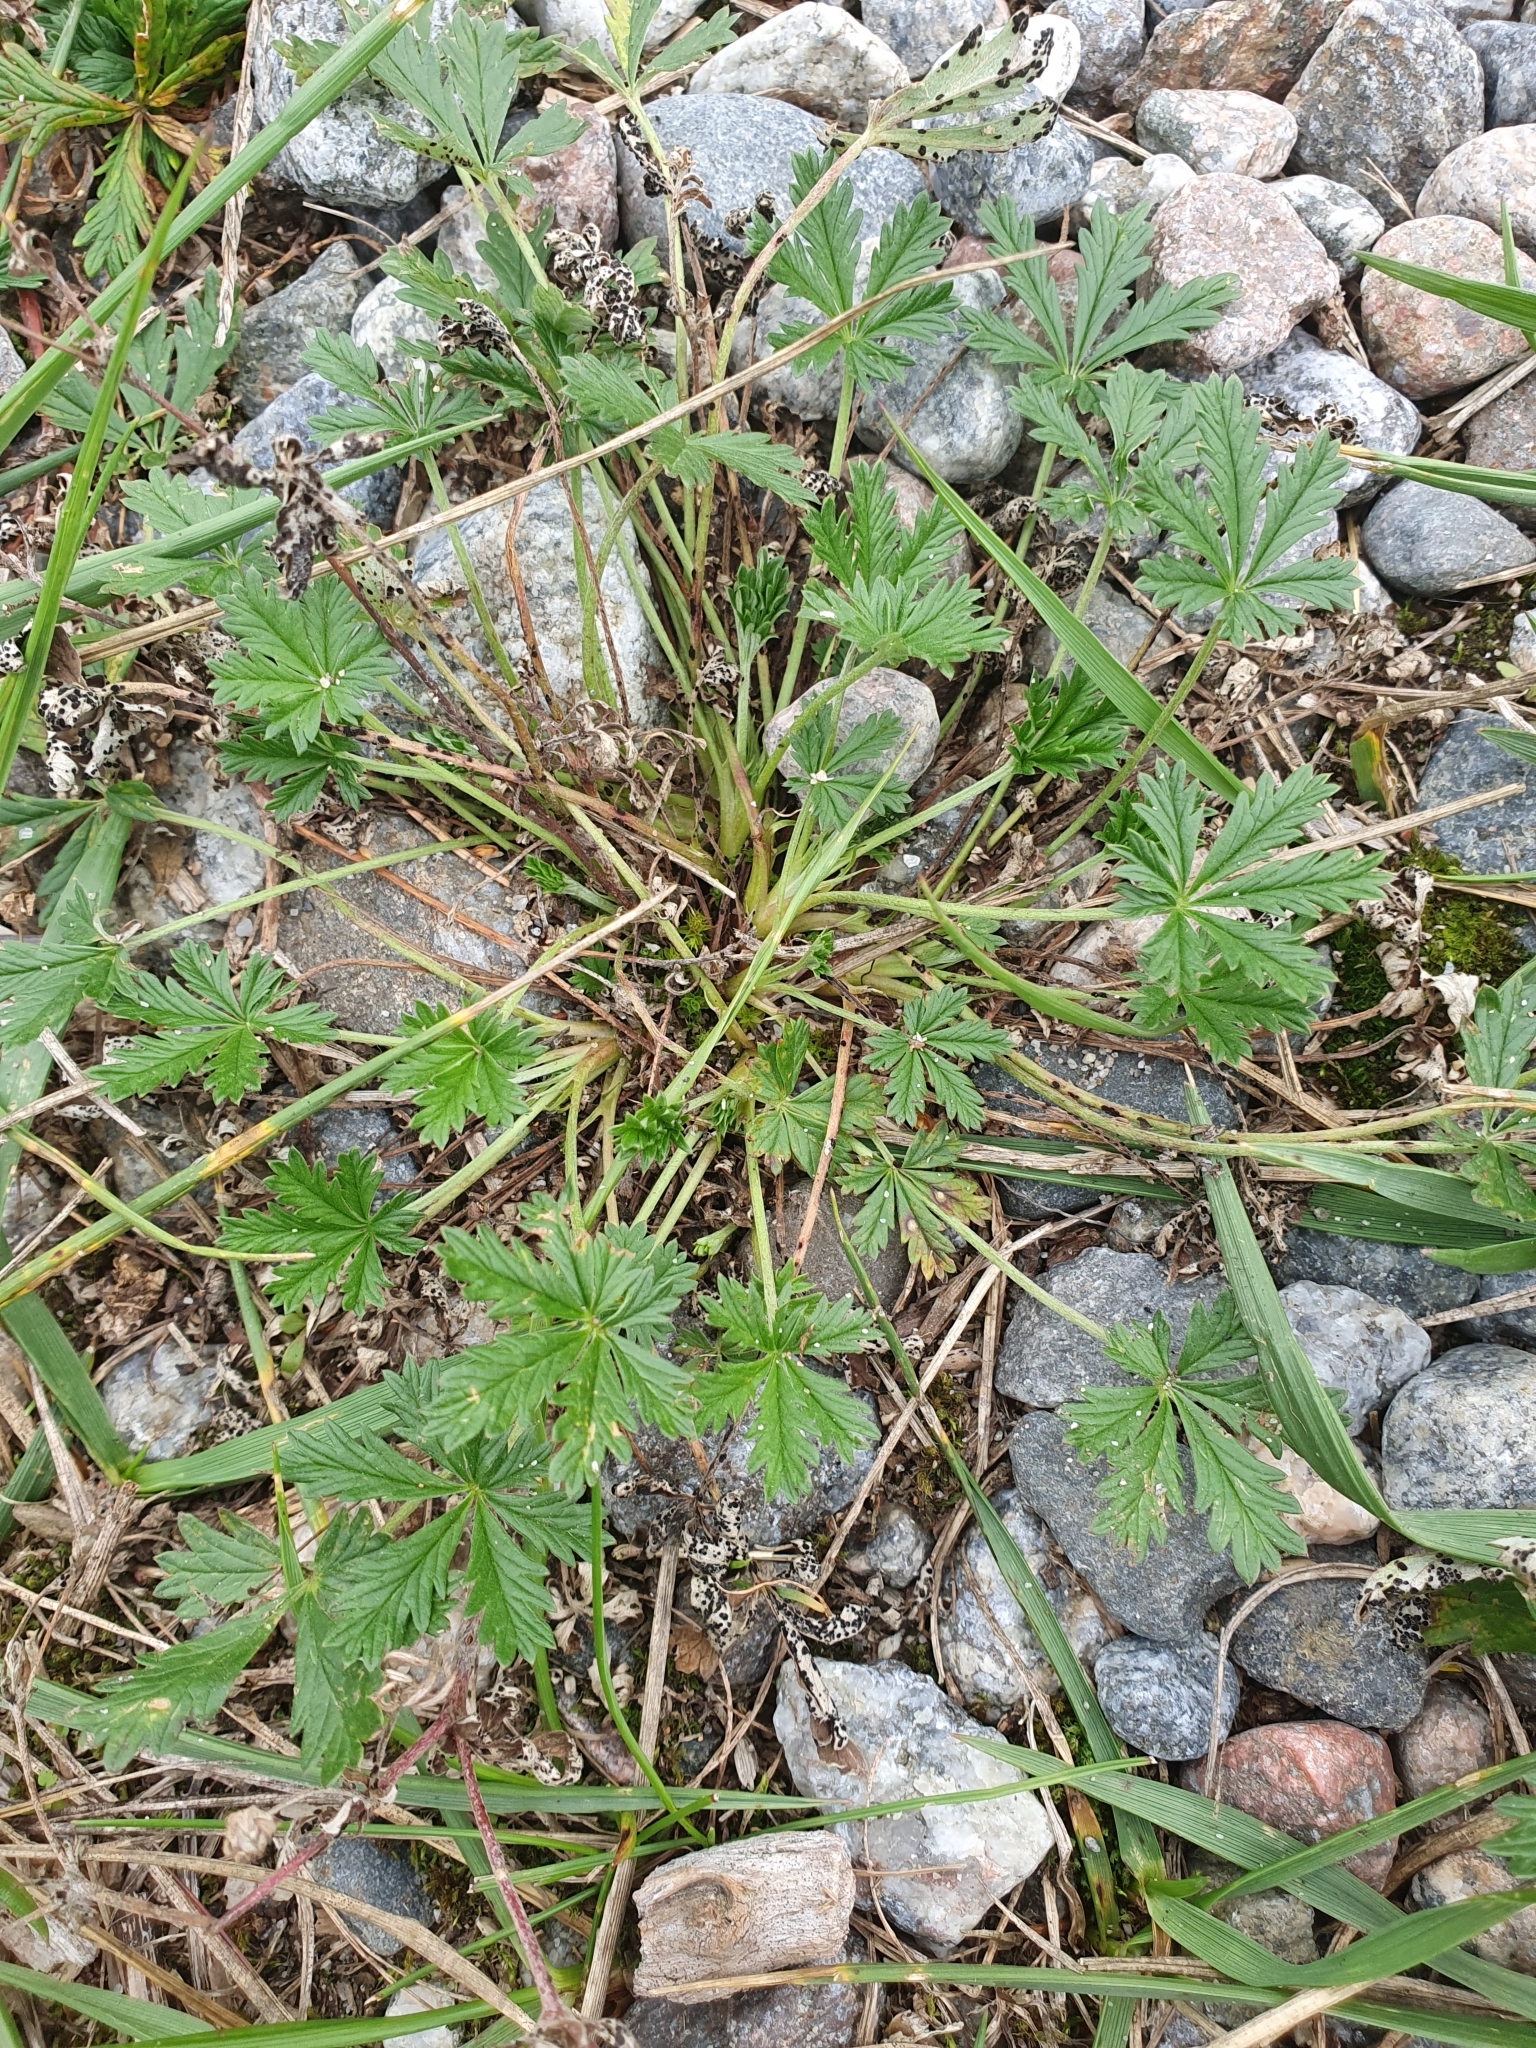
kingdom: Plantae
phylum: Tracheophyta
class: Magnoliopsida
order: Rosales
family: Rosaceae
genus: Potentilla
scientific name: Potentilla argentea
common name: Hoary cinquefoil
